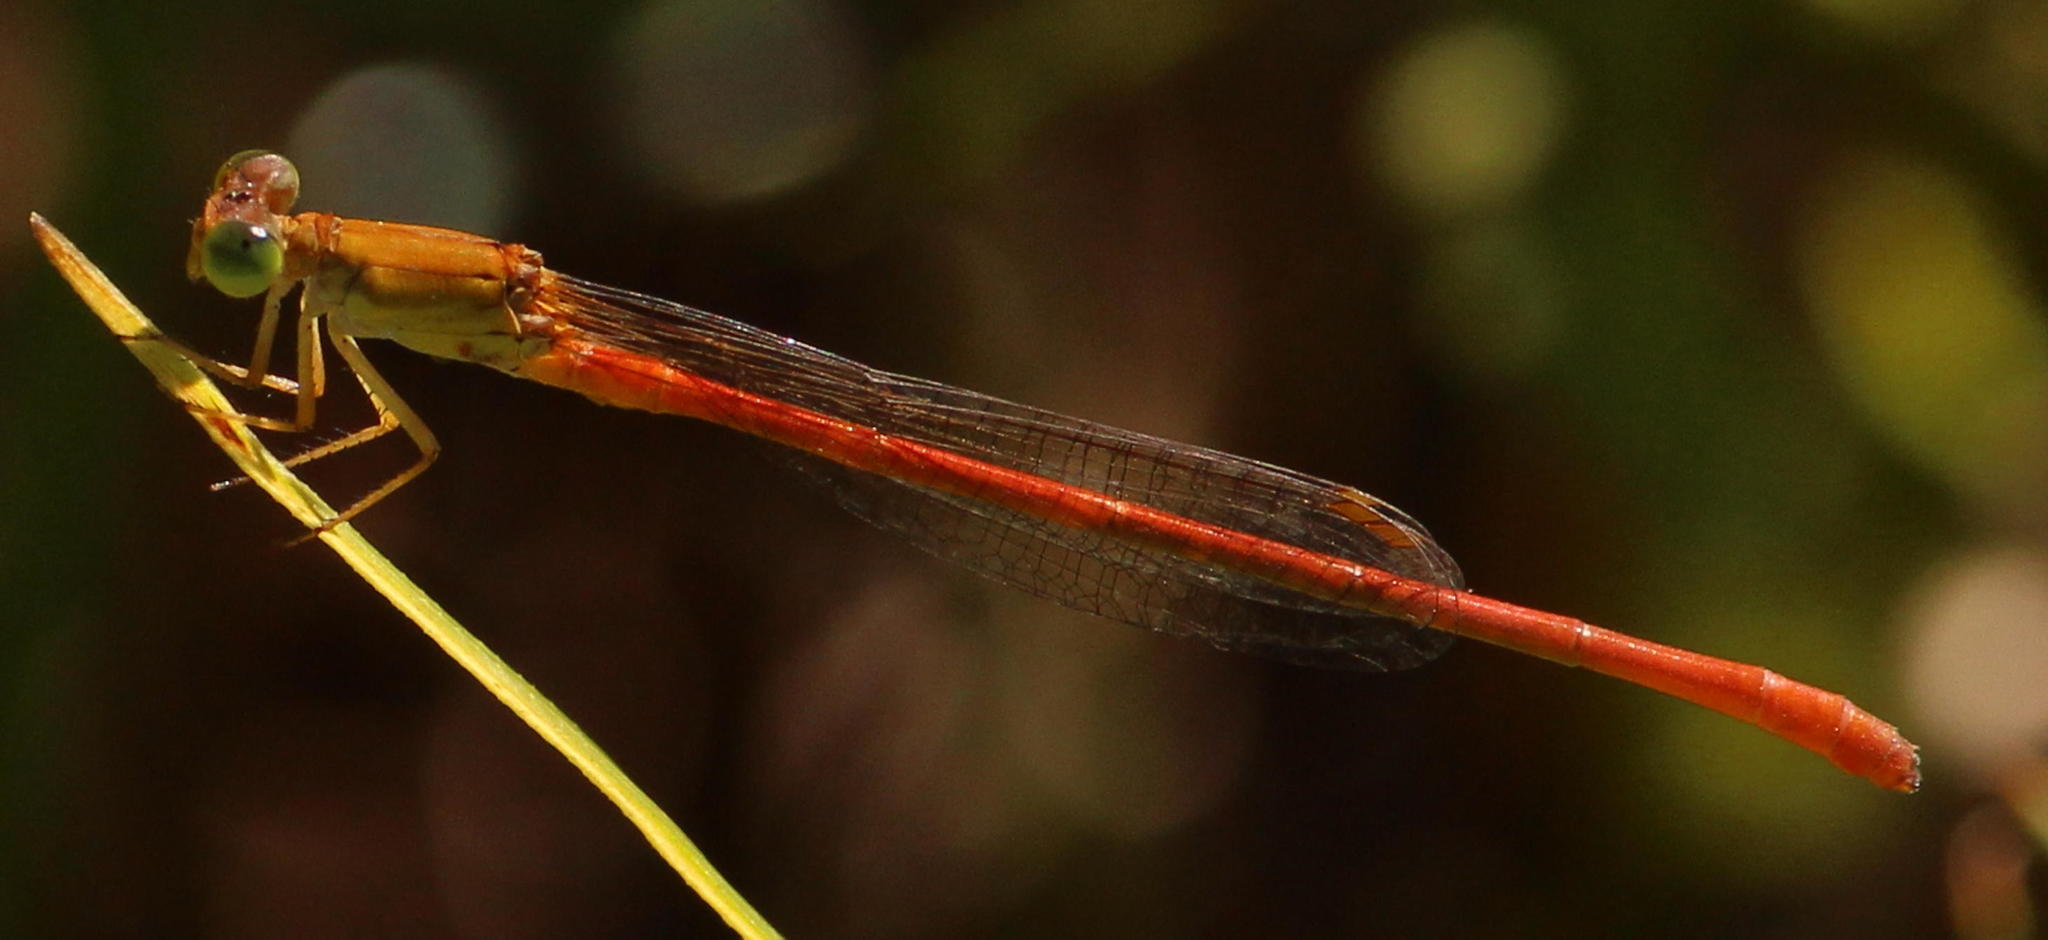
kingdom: Animalia
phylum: Arthropoda
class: Insecta
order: Odonata
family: Coenagrionidae
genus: Ceriagrion
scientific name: Ceriagrion glabrum
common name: Common pond damsel
